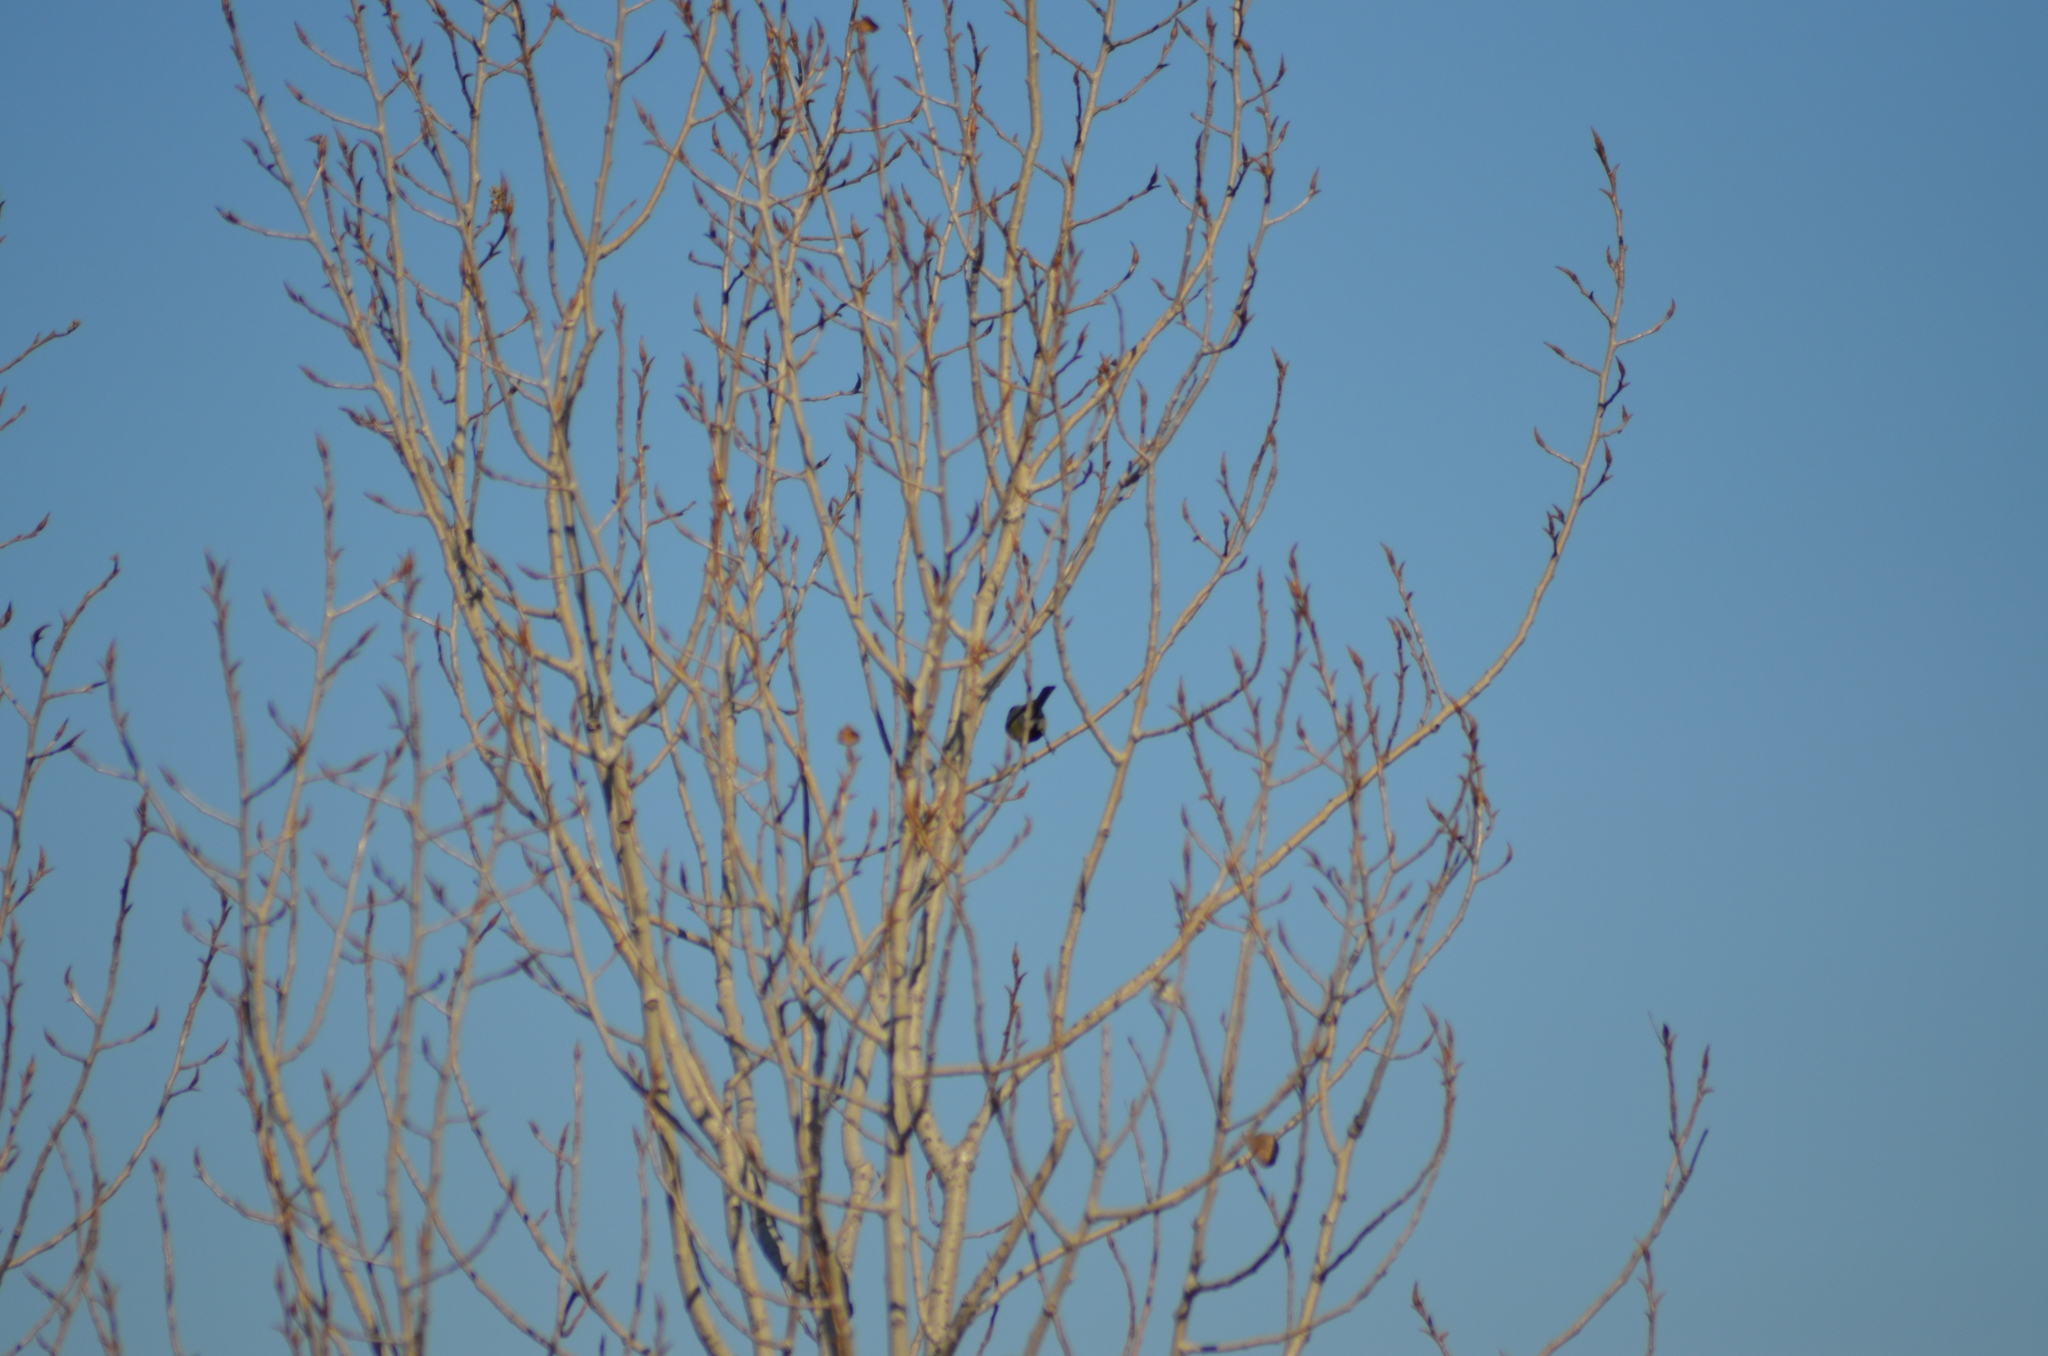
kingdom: Animalia
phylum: Chordata
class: Aves
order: Passeriformes
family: Paridae
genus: Parus
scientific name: Parus major
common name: Great tit
